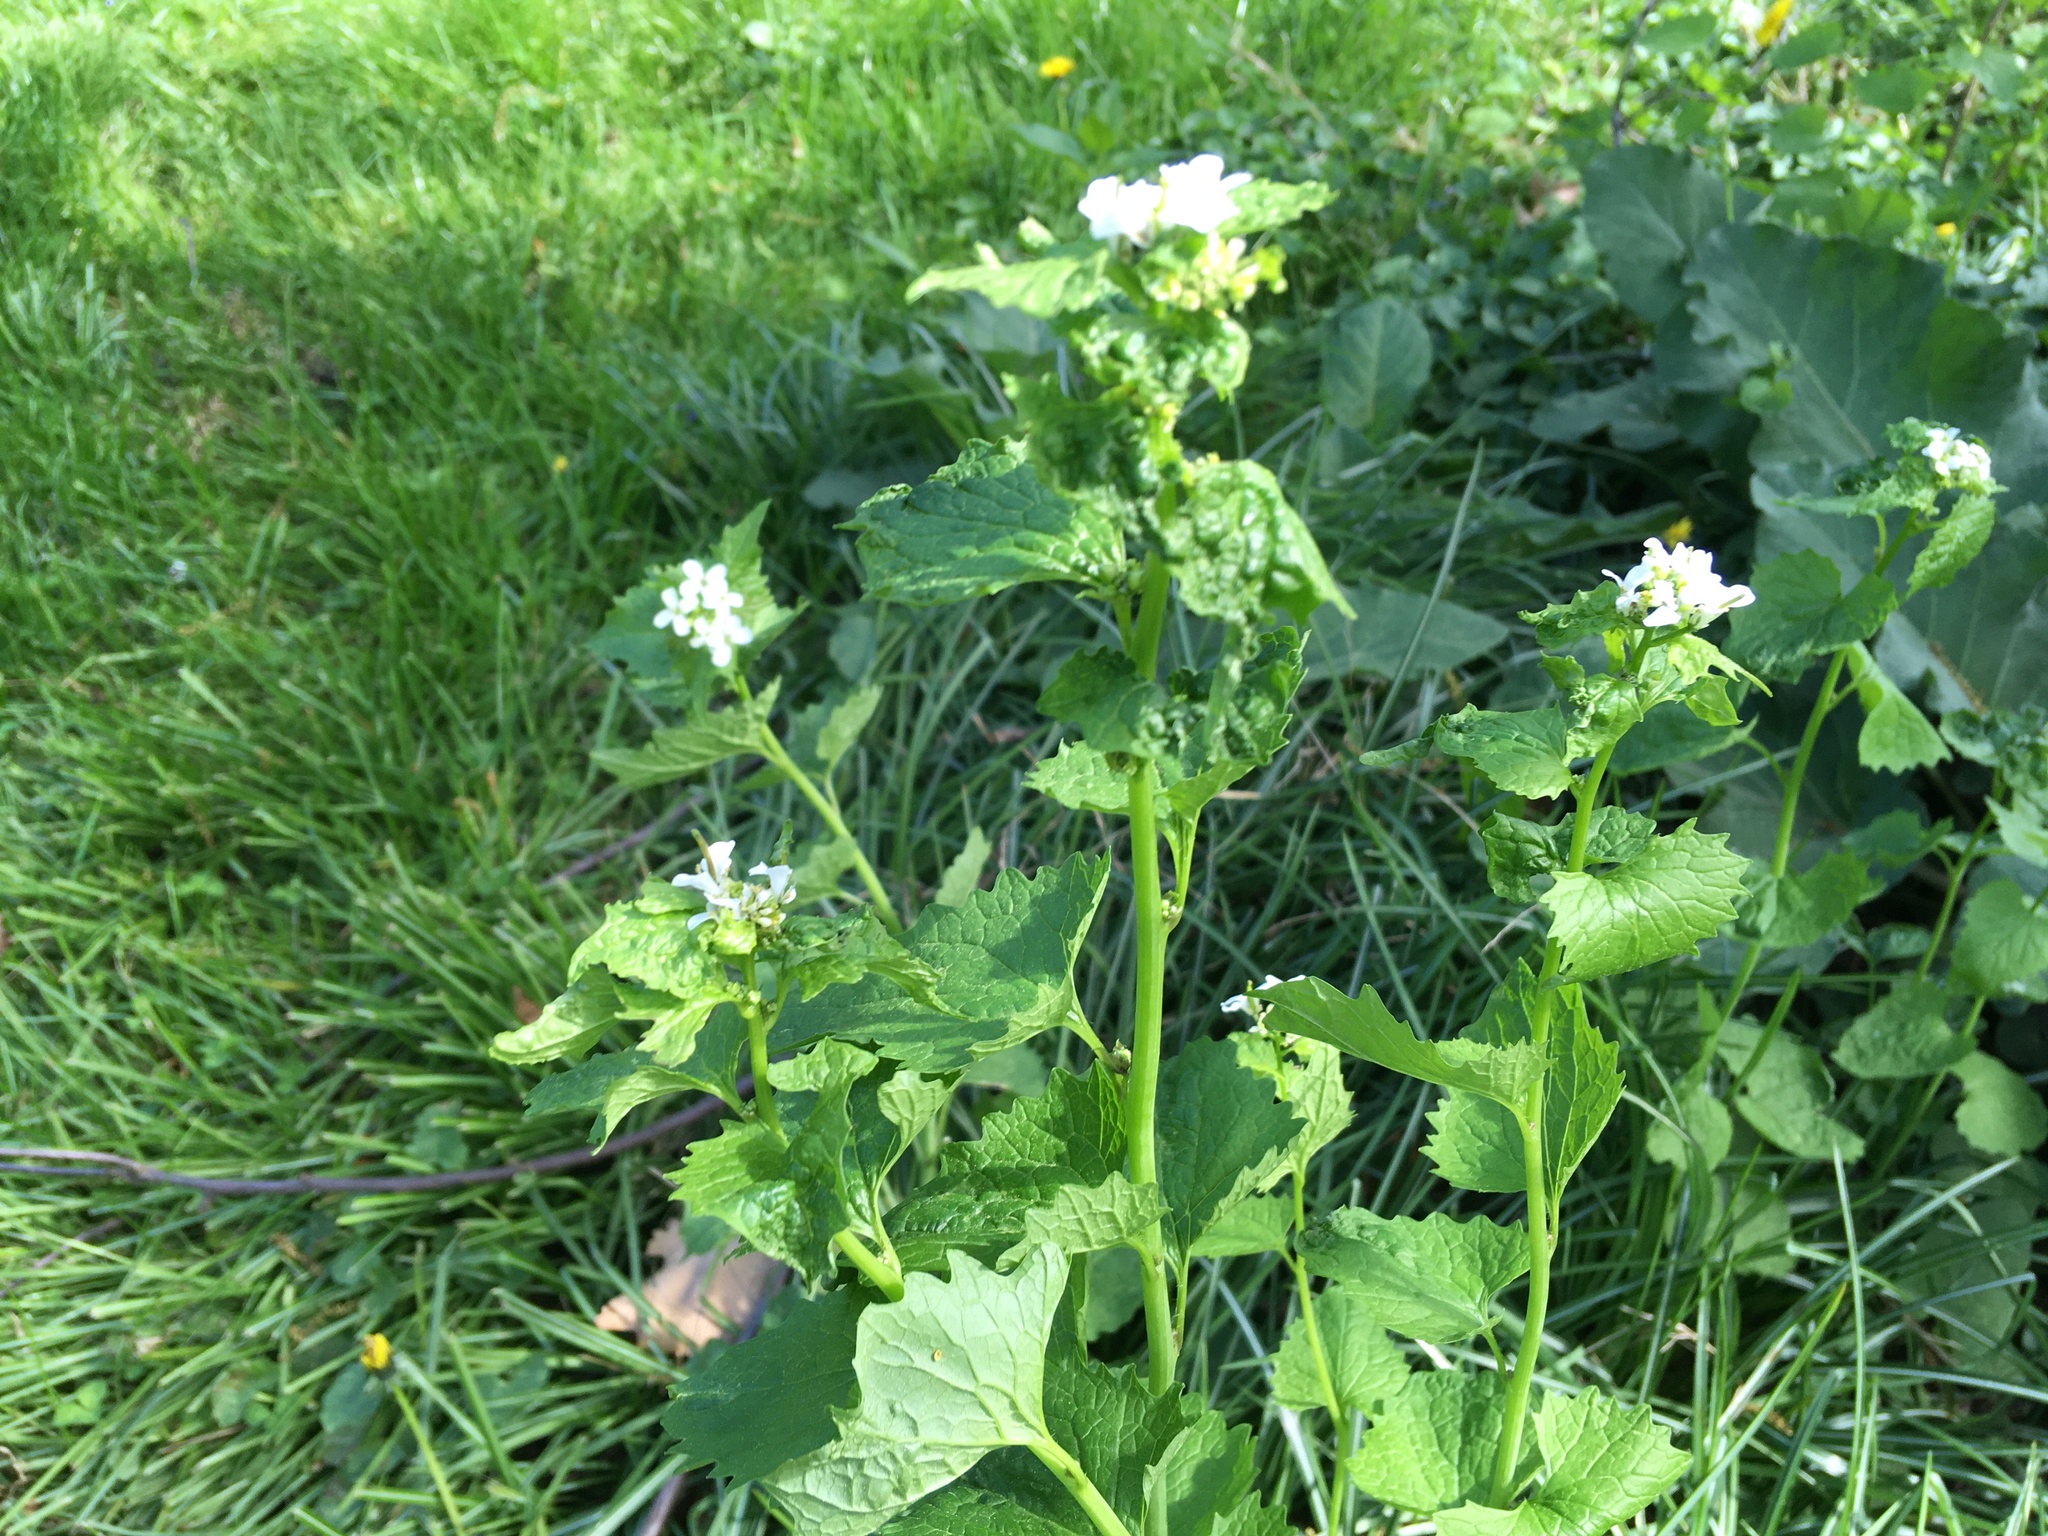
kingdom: Plantae
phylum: Tracheophyta
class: Magnoliopsida
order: Brassicales
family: Brassicaceae
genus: Alliaria
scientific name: Alliaria petiolata
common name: Garlic mustard
